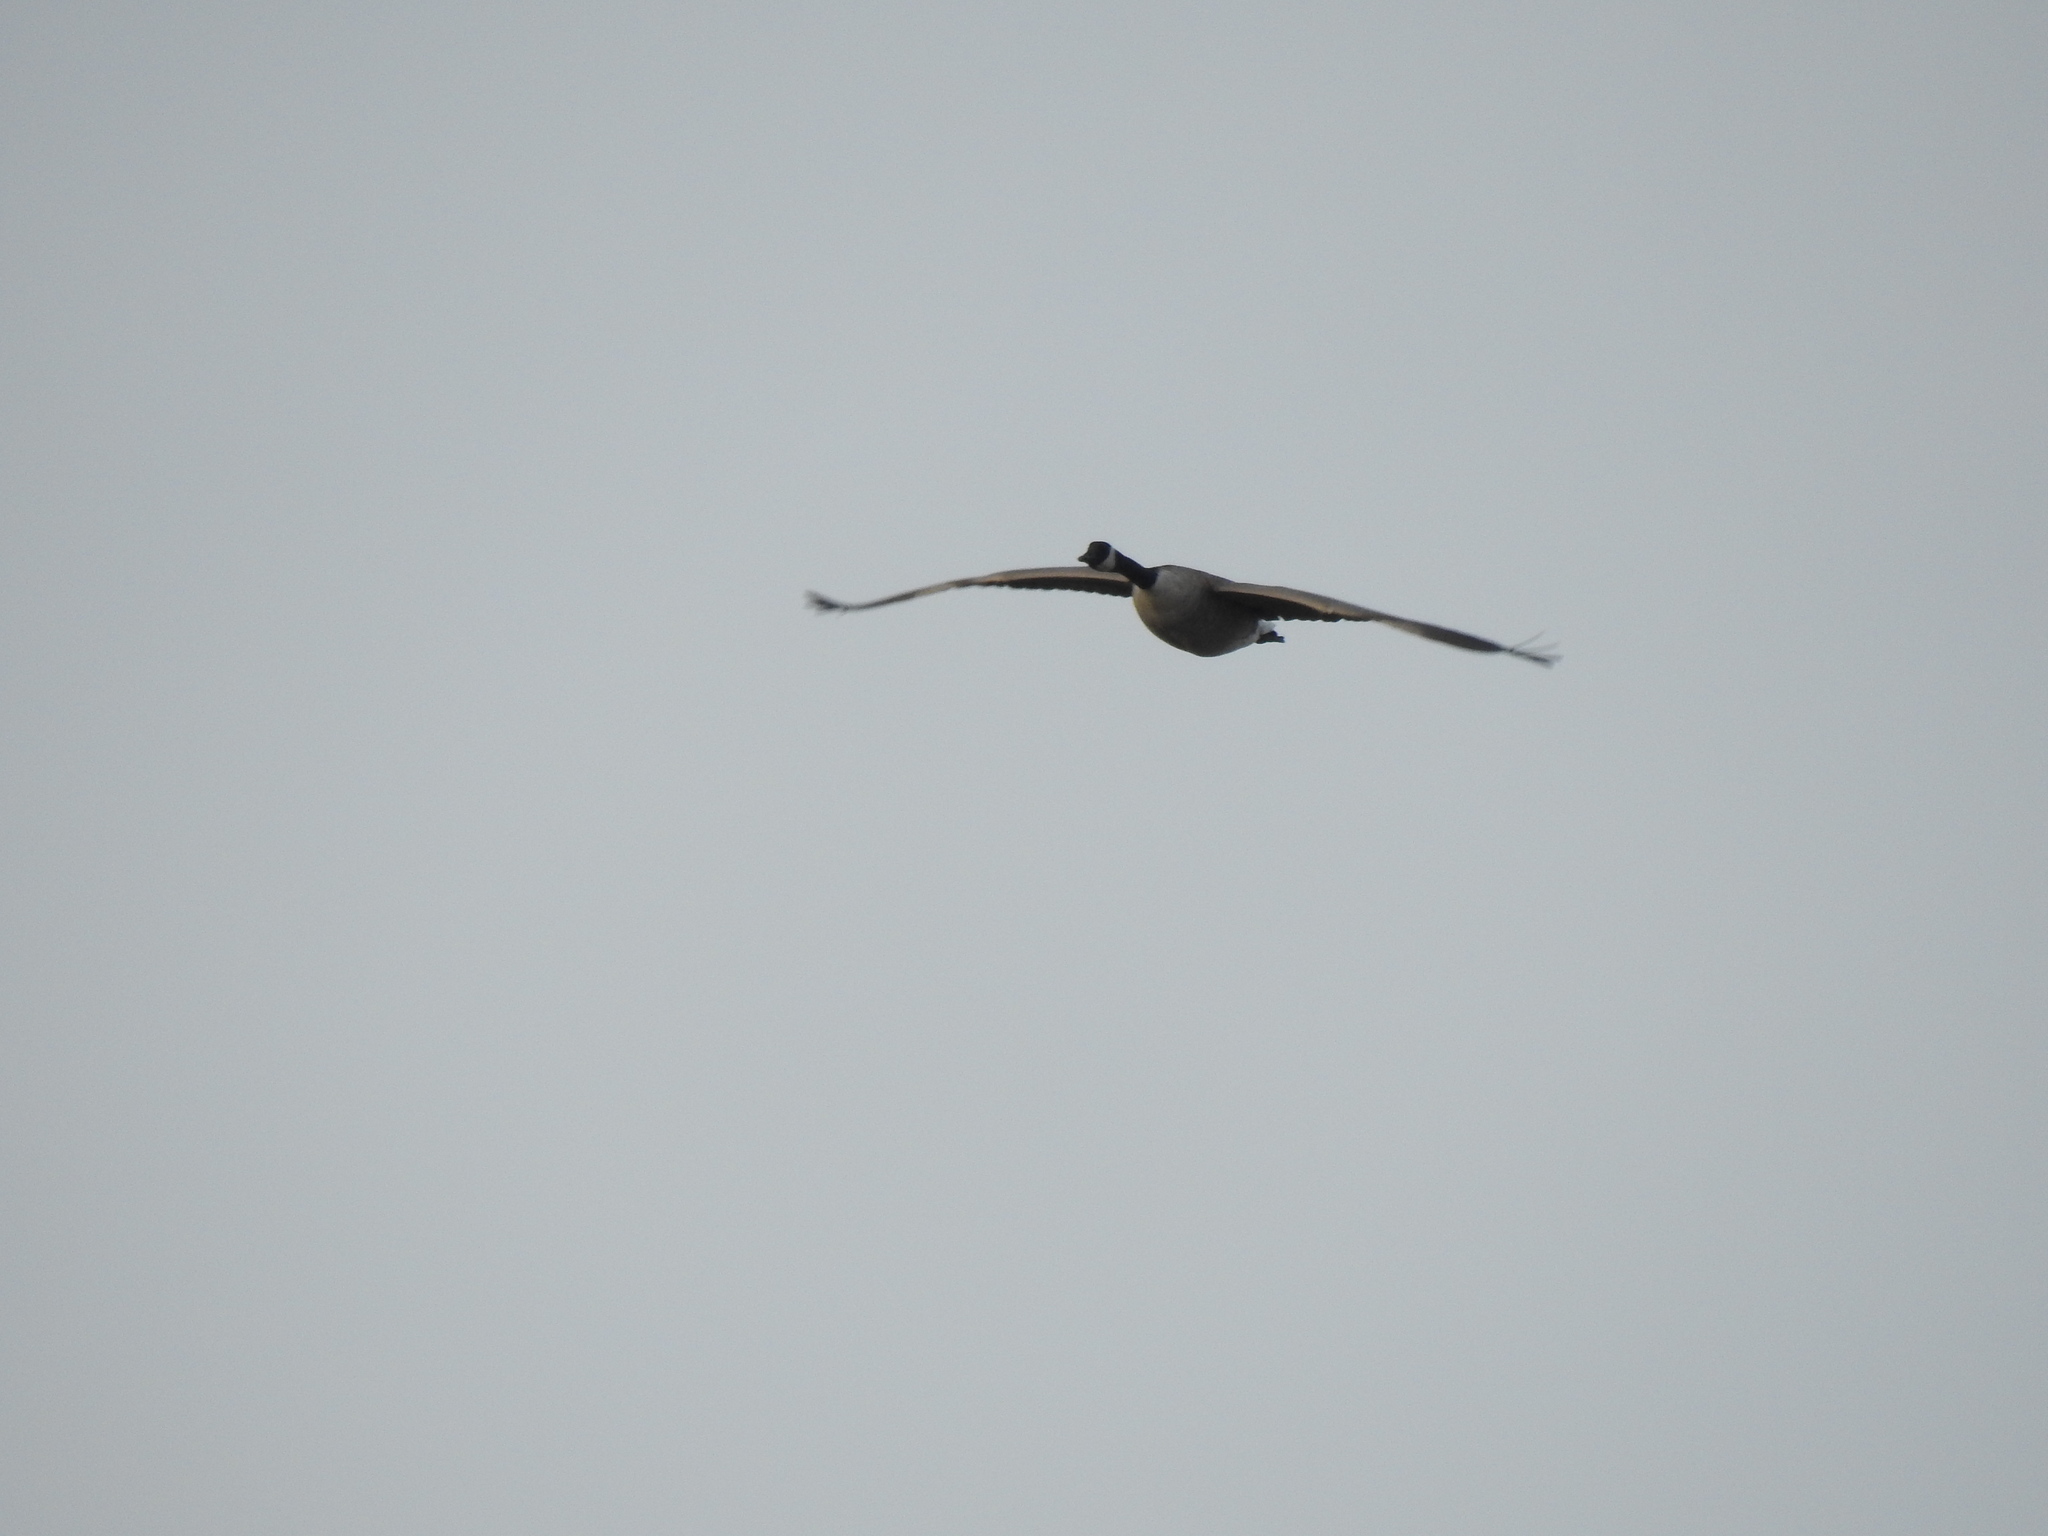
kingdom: Animalia
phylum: Chordata
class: Aves
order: Anseriformes
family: Anatidae
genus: Branta
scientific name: Branta canadensis
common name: Canada goose
